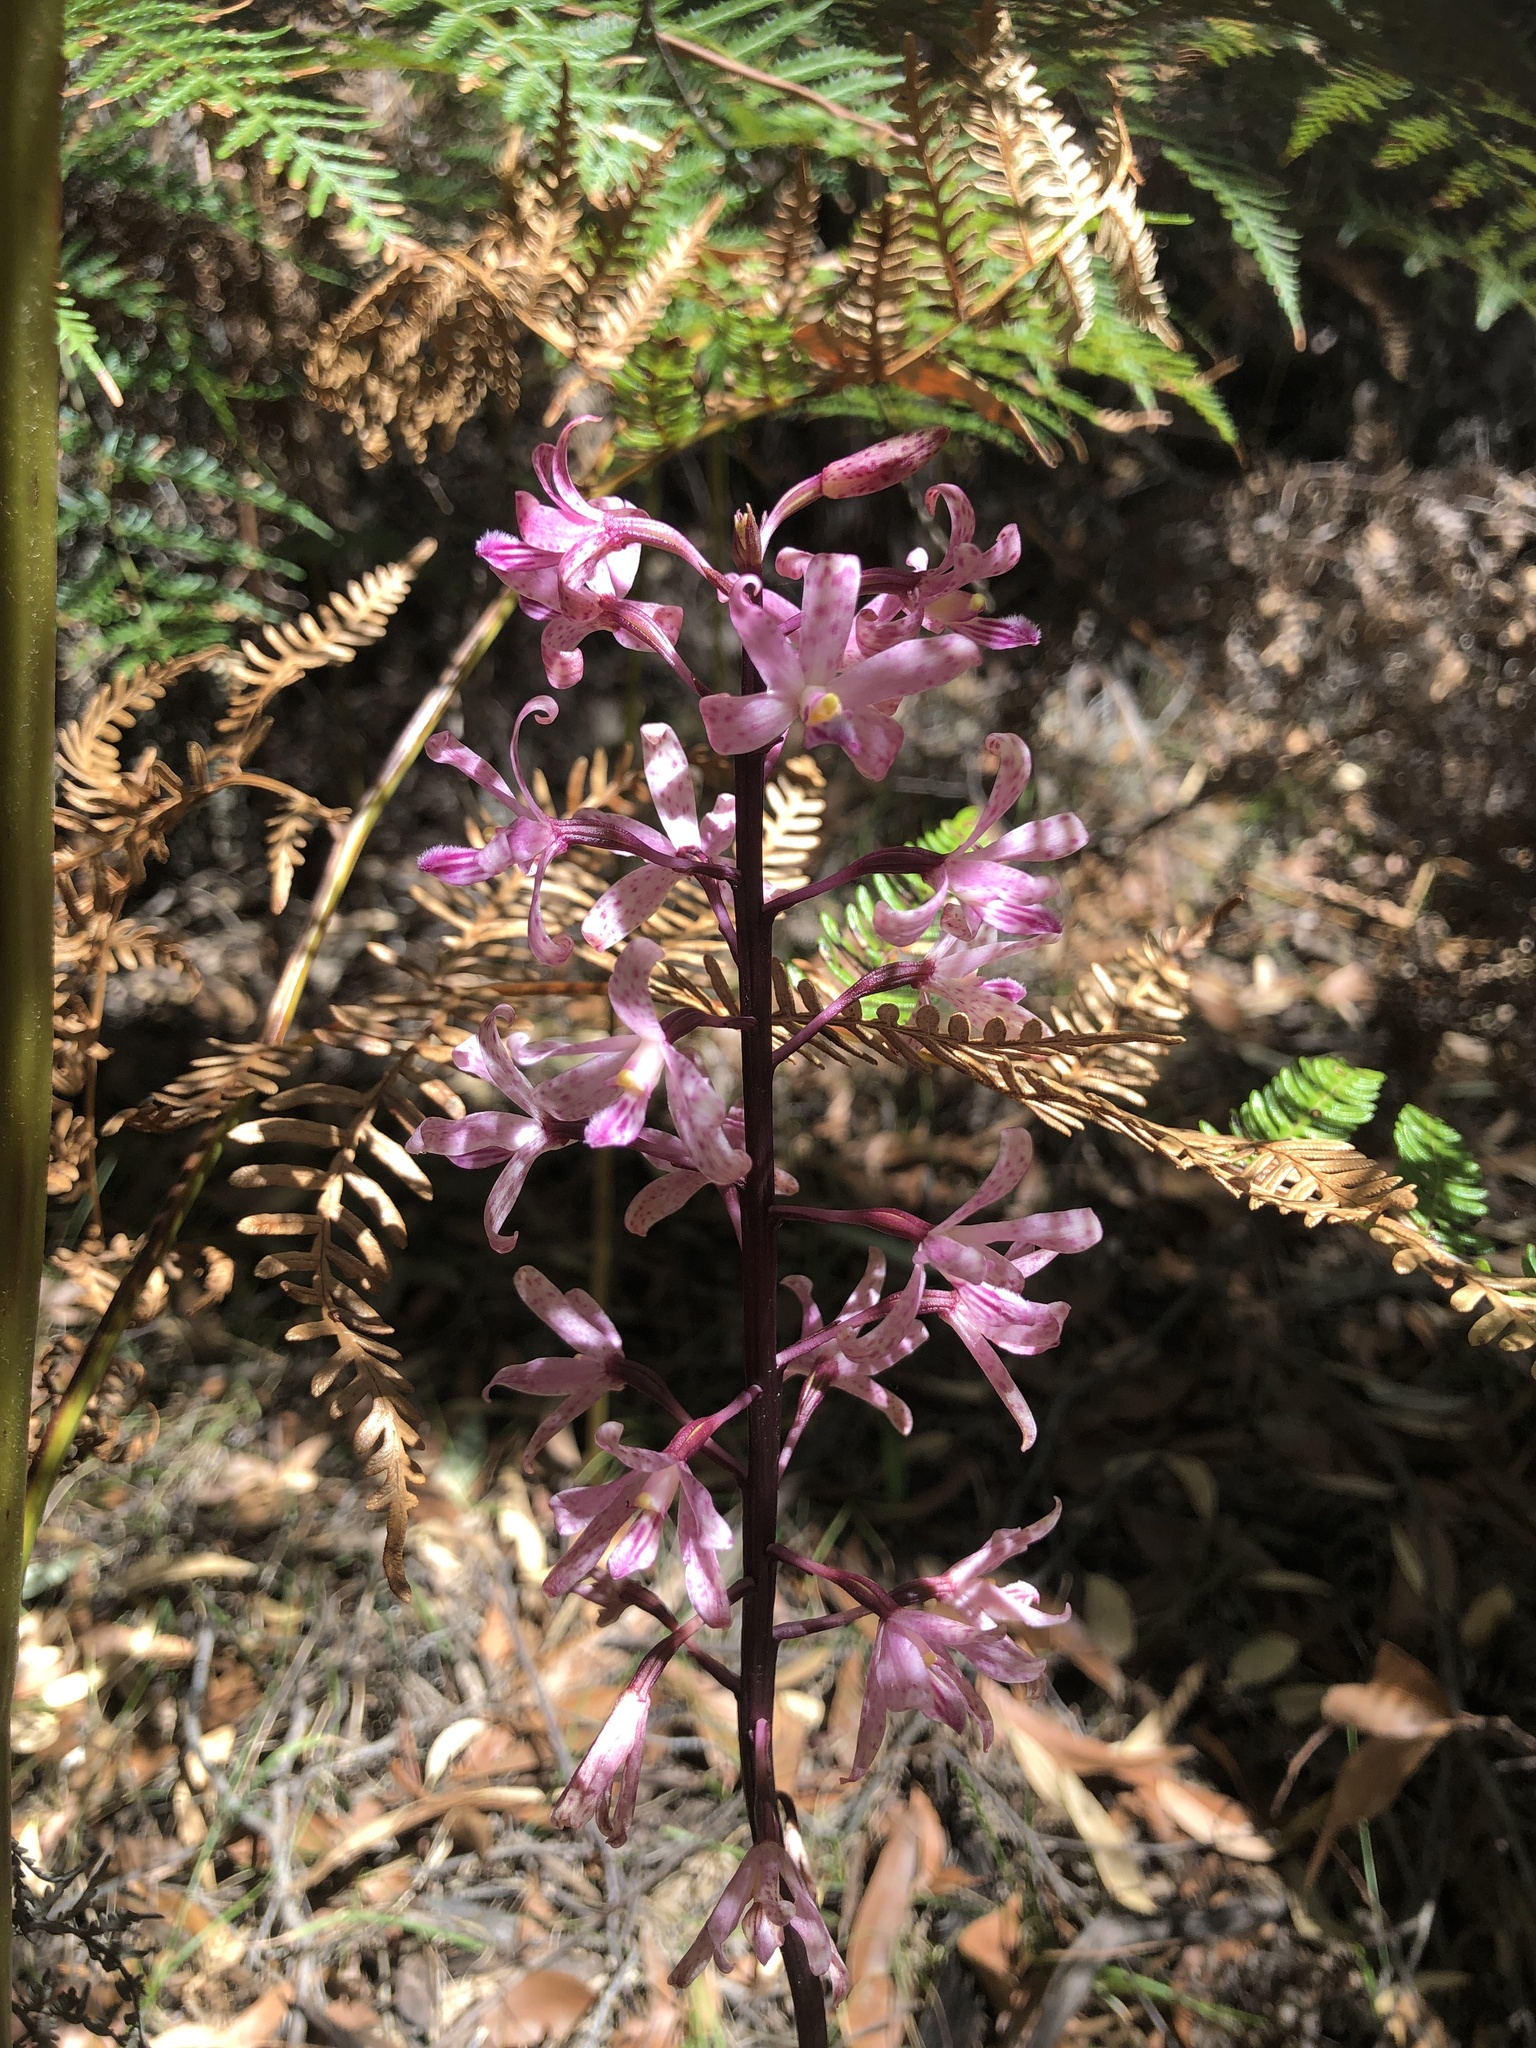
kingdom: Plantae
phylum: Tracheophyta
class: Liliopsida
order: Asparagales
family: Orchidaceae
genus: Dipodium
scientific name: Dipodium roseum
